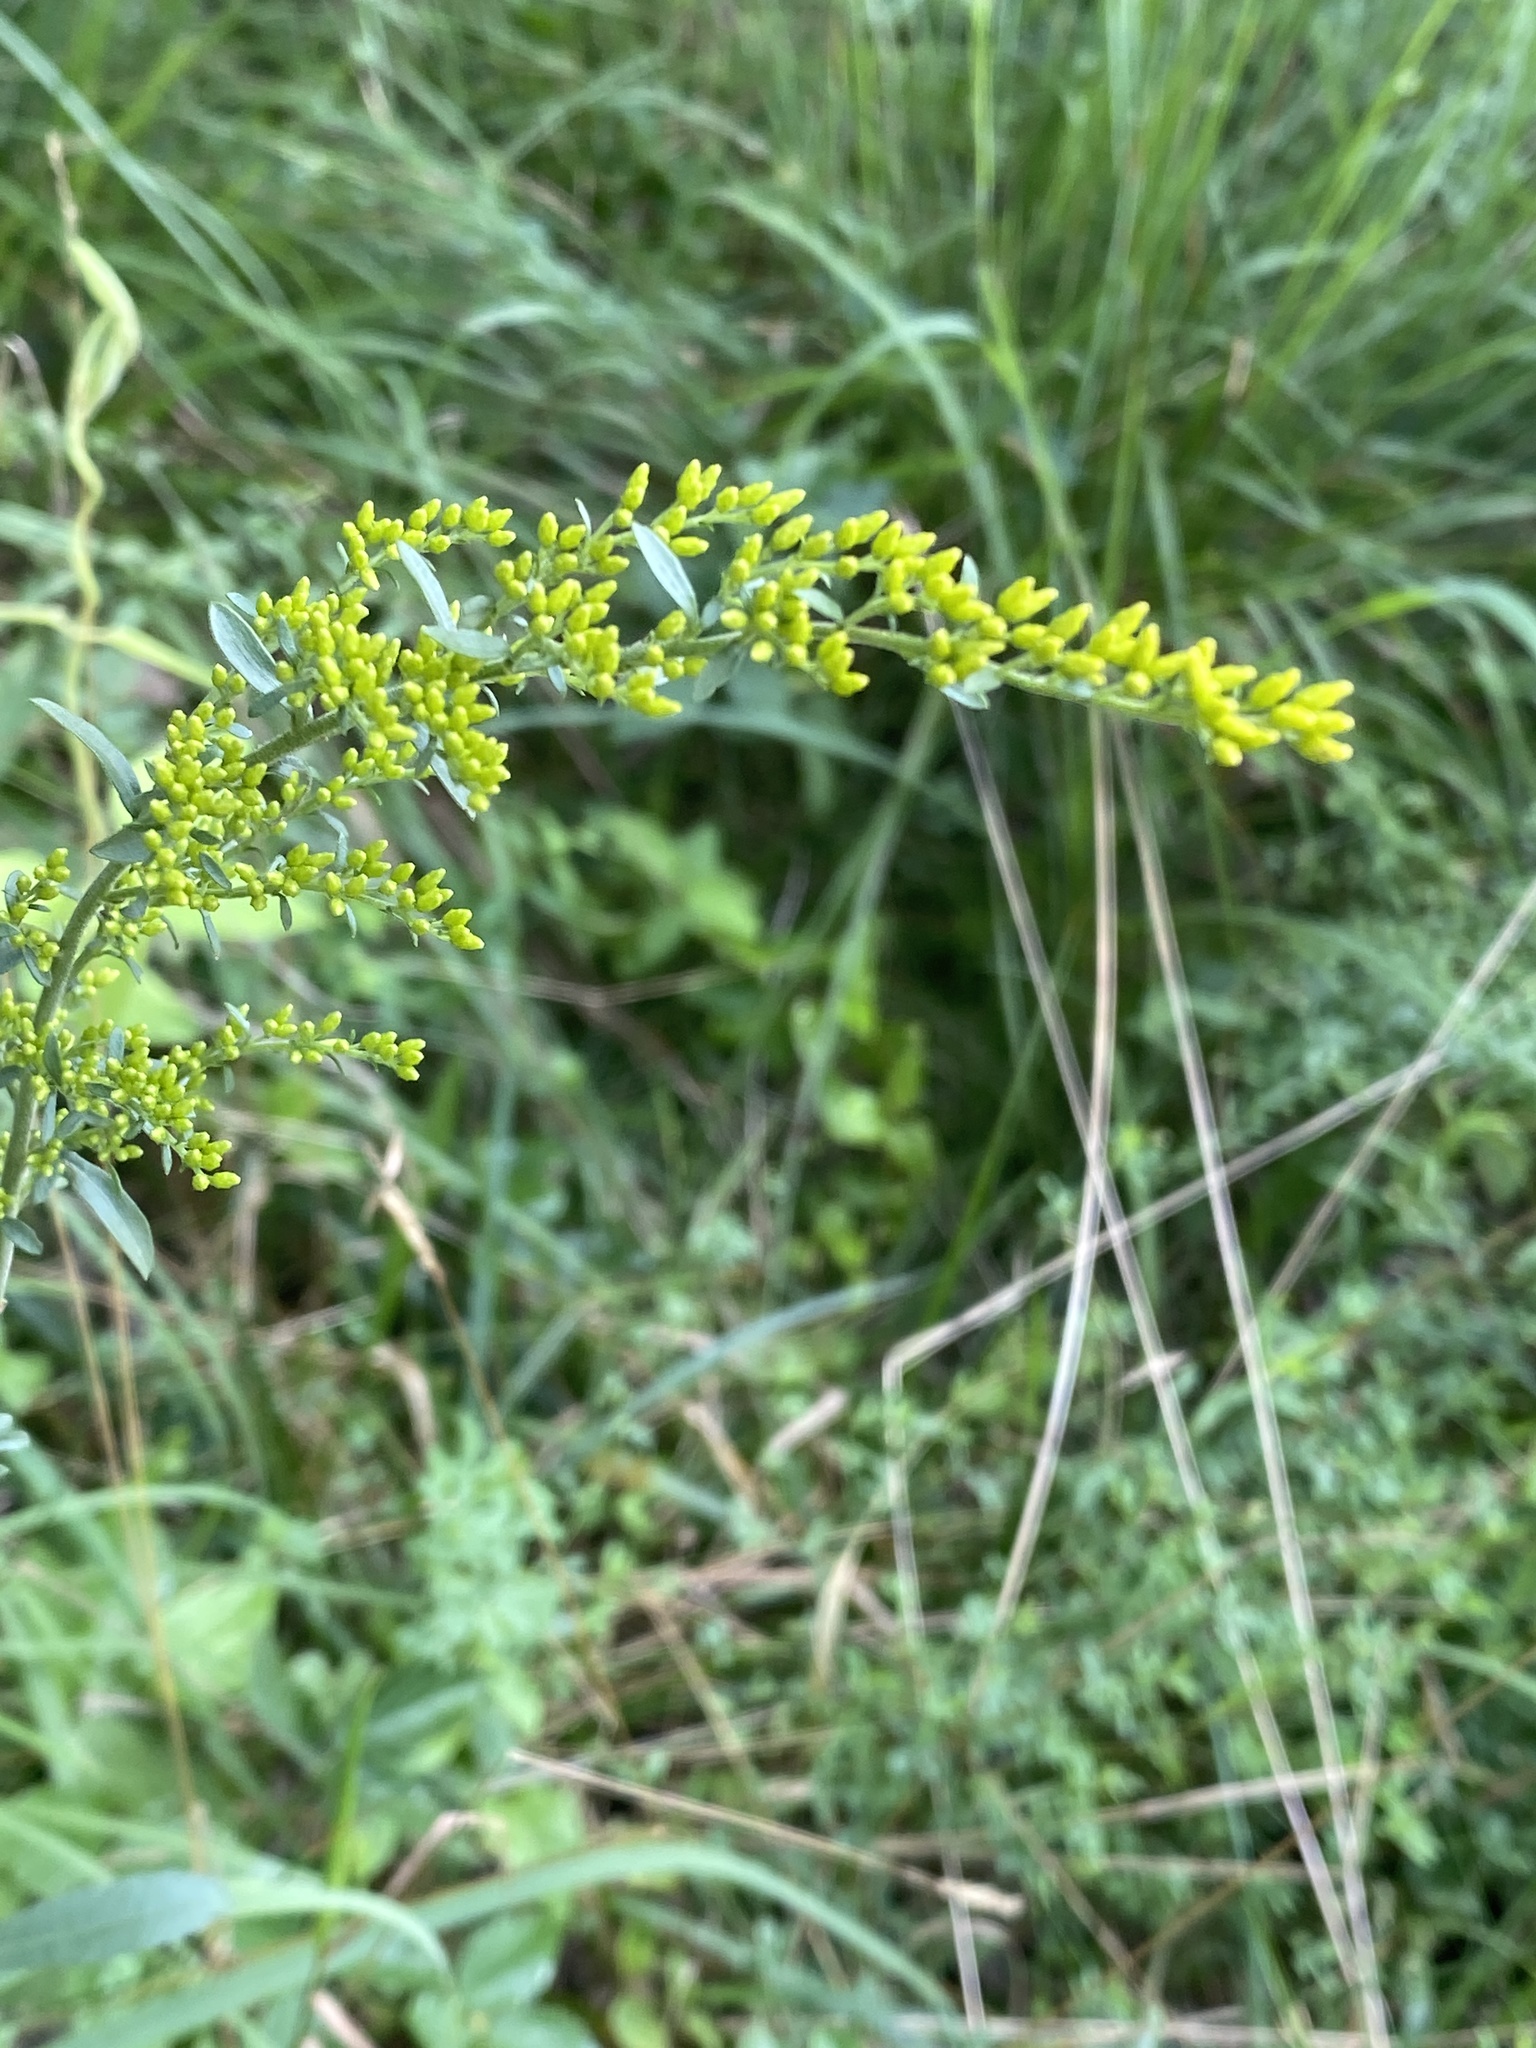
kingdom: Plantae
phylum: Tracheophyta
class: Magnoliopsida
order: Asterales
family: Asteraceae
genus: Solidago
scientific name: Solidago juncea
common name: Early goldenrod
